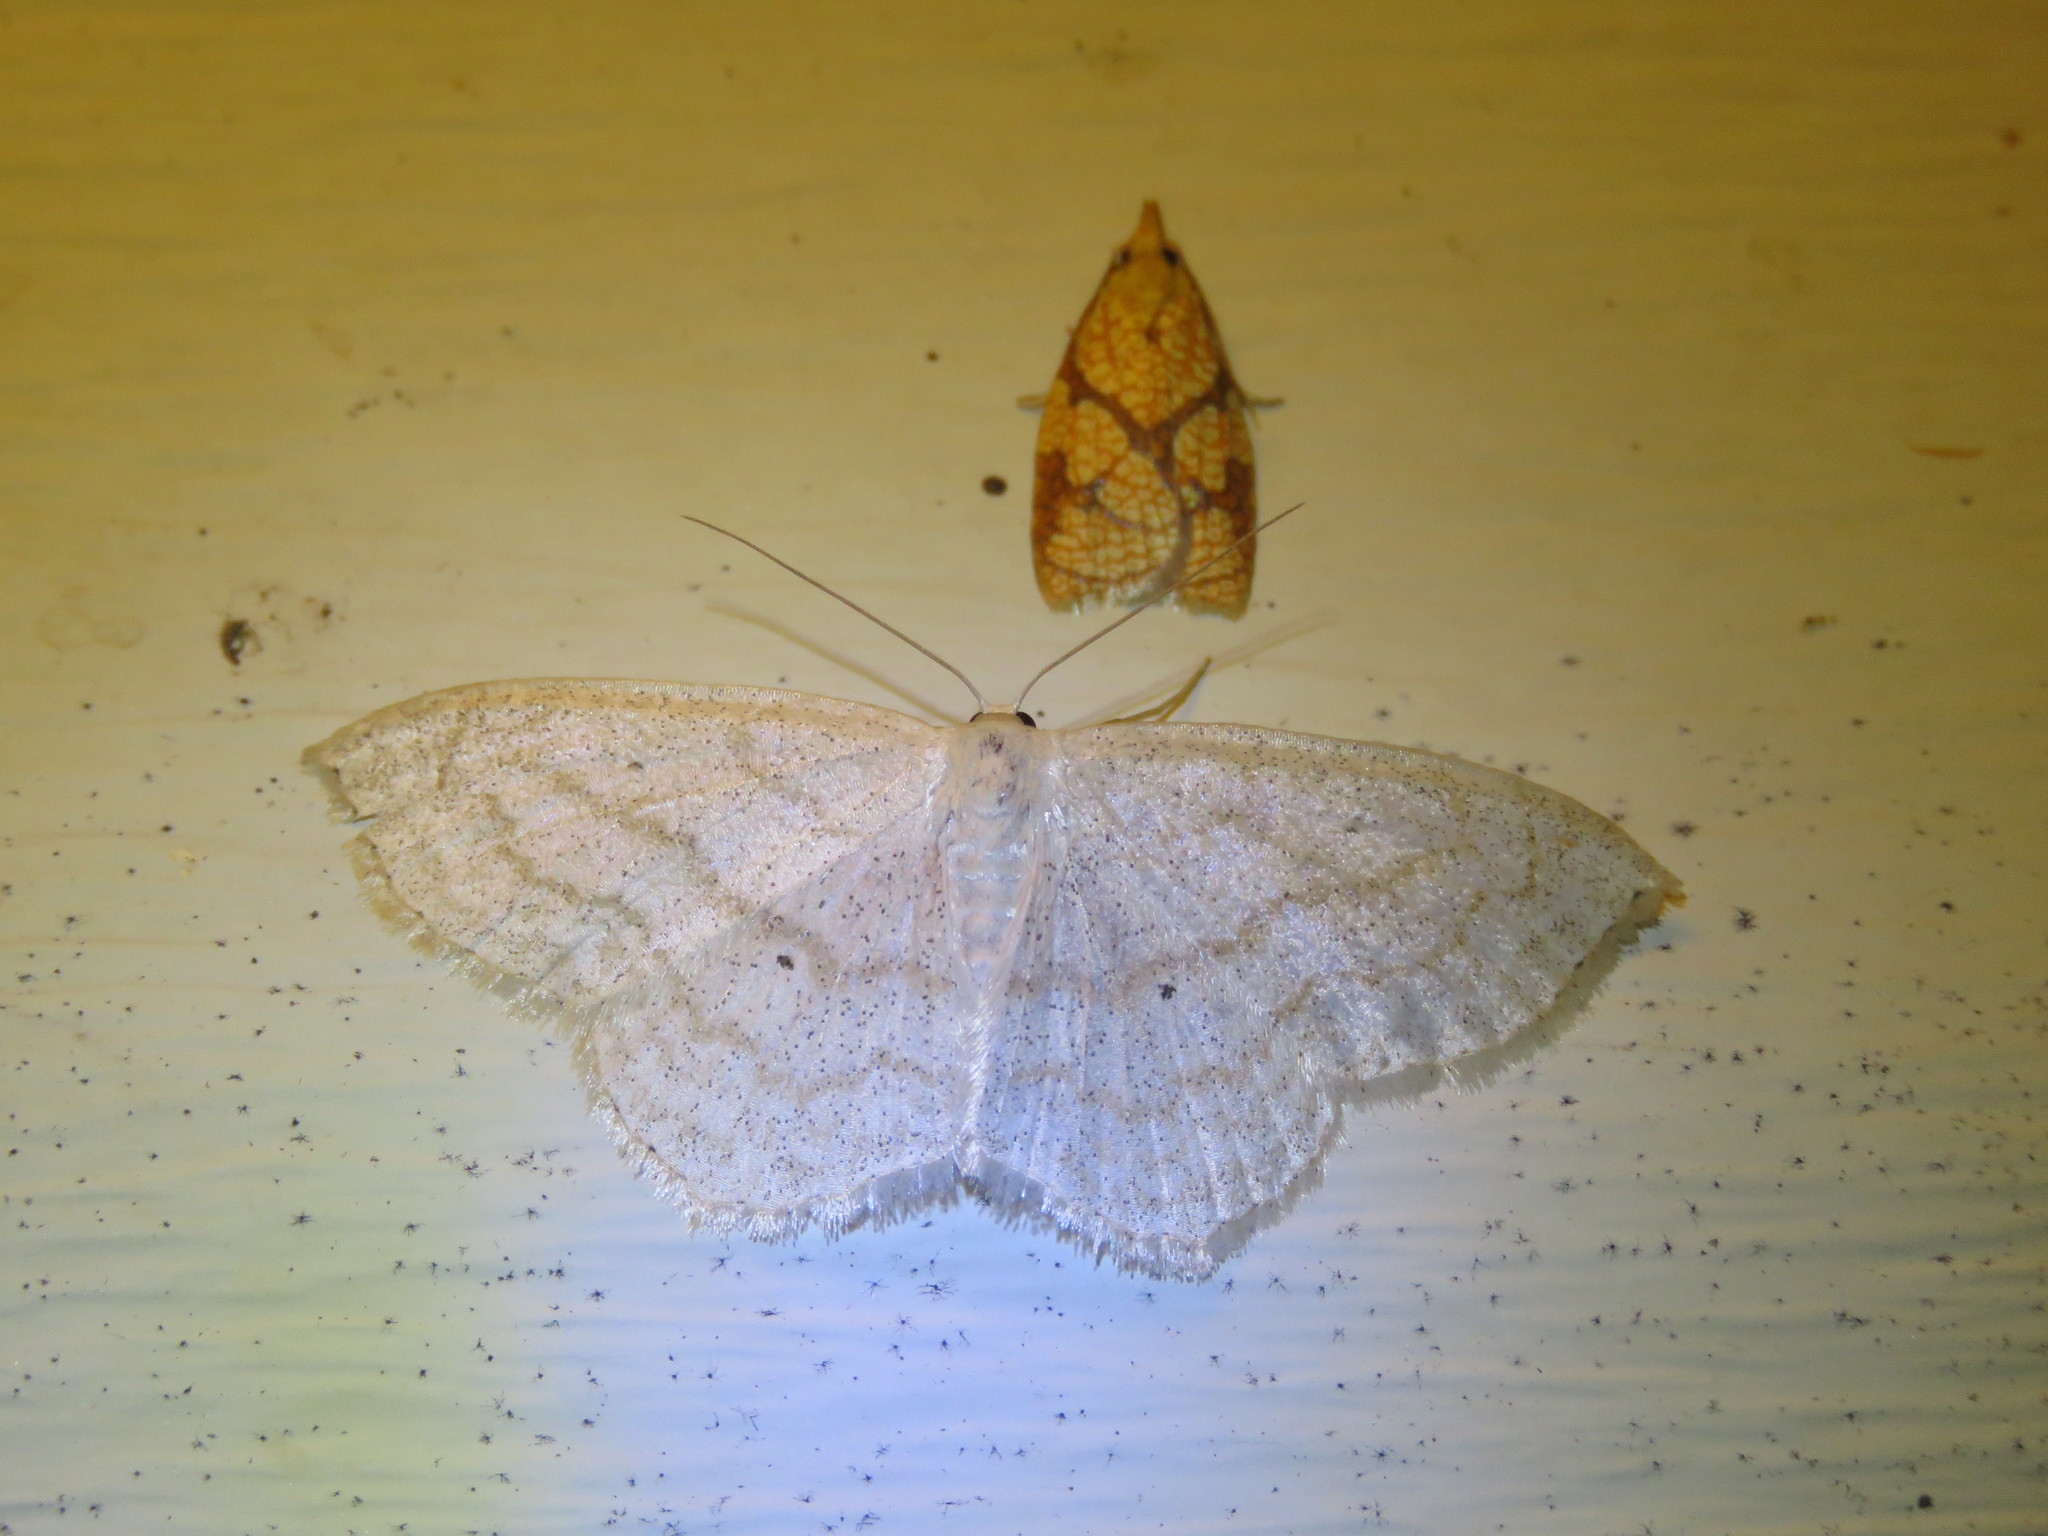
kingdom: Animalia
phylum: Arthropoda
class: Insecta
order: Lepidoptera
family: Geometridae
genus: Scopula
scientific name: Scopula limboundata
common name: Large lace border
